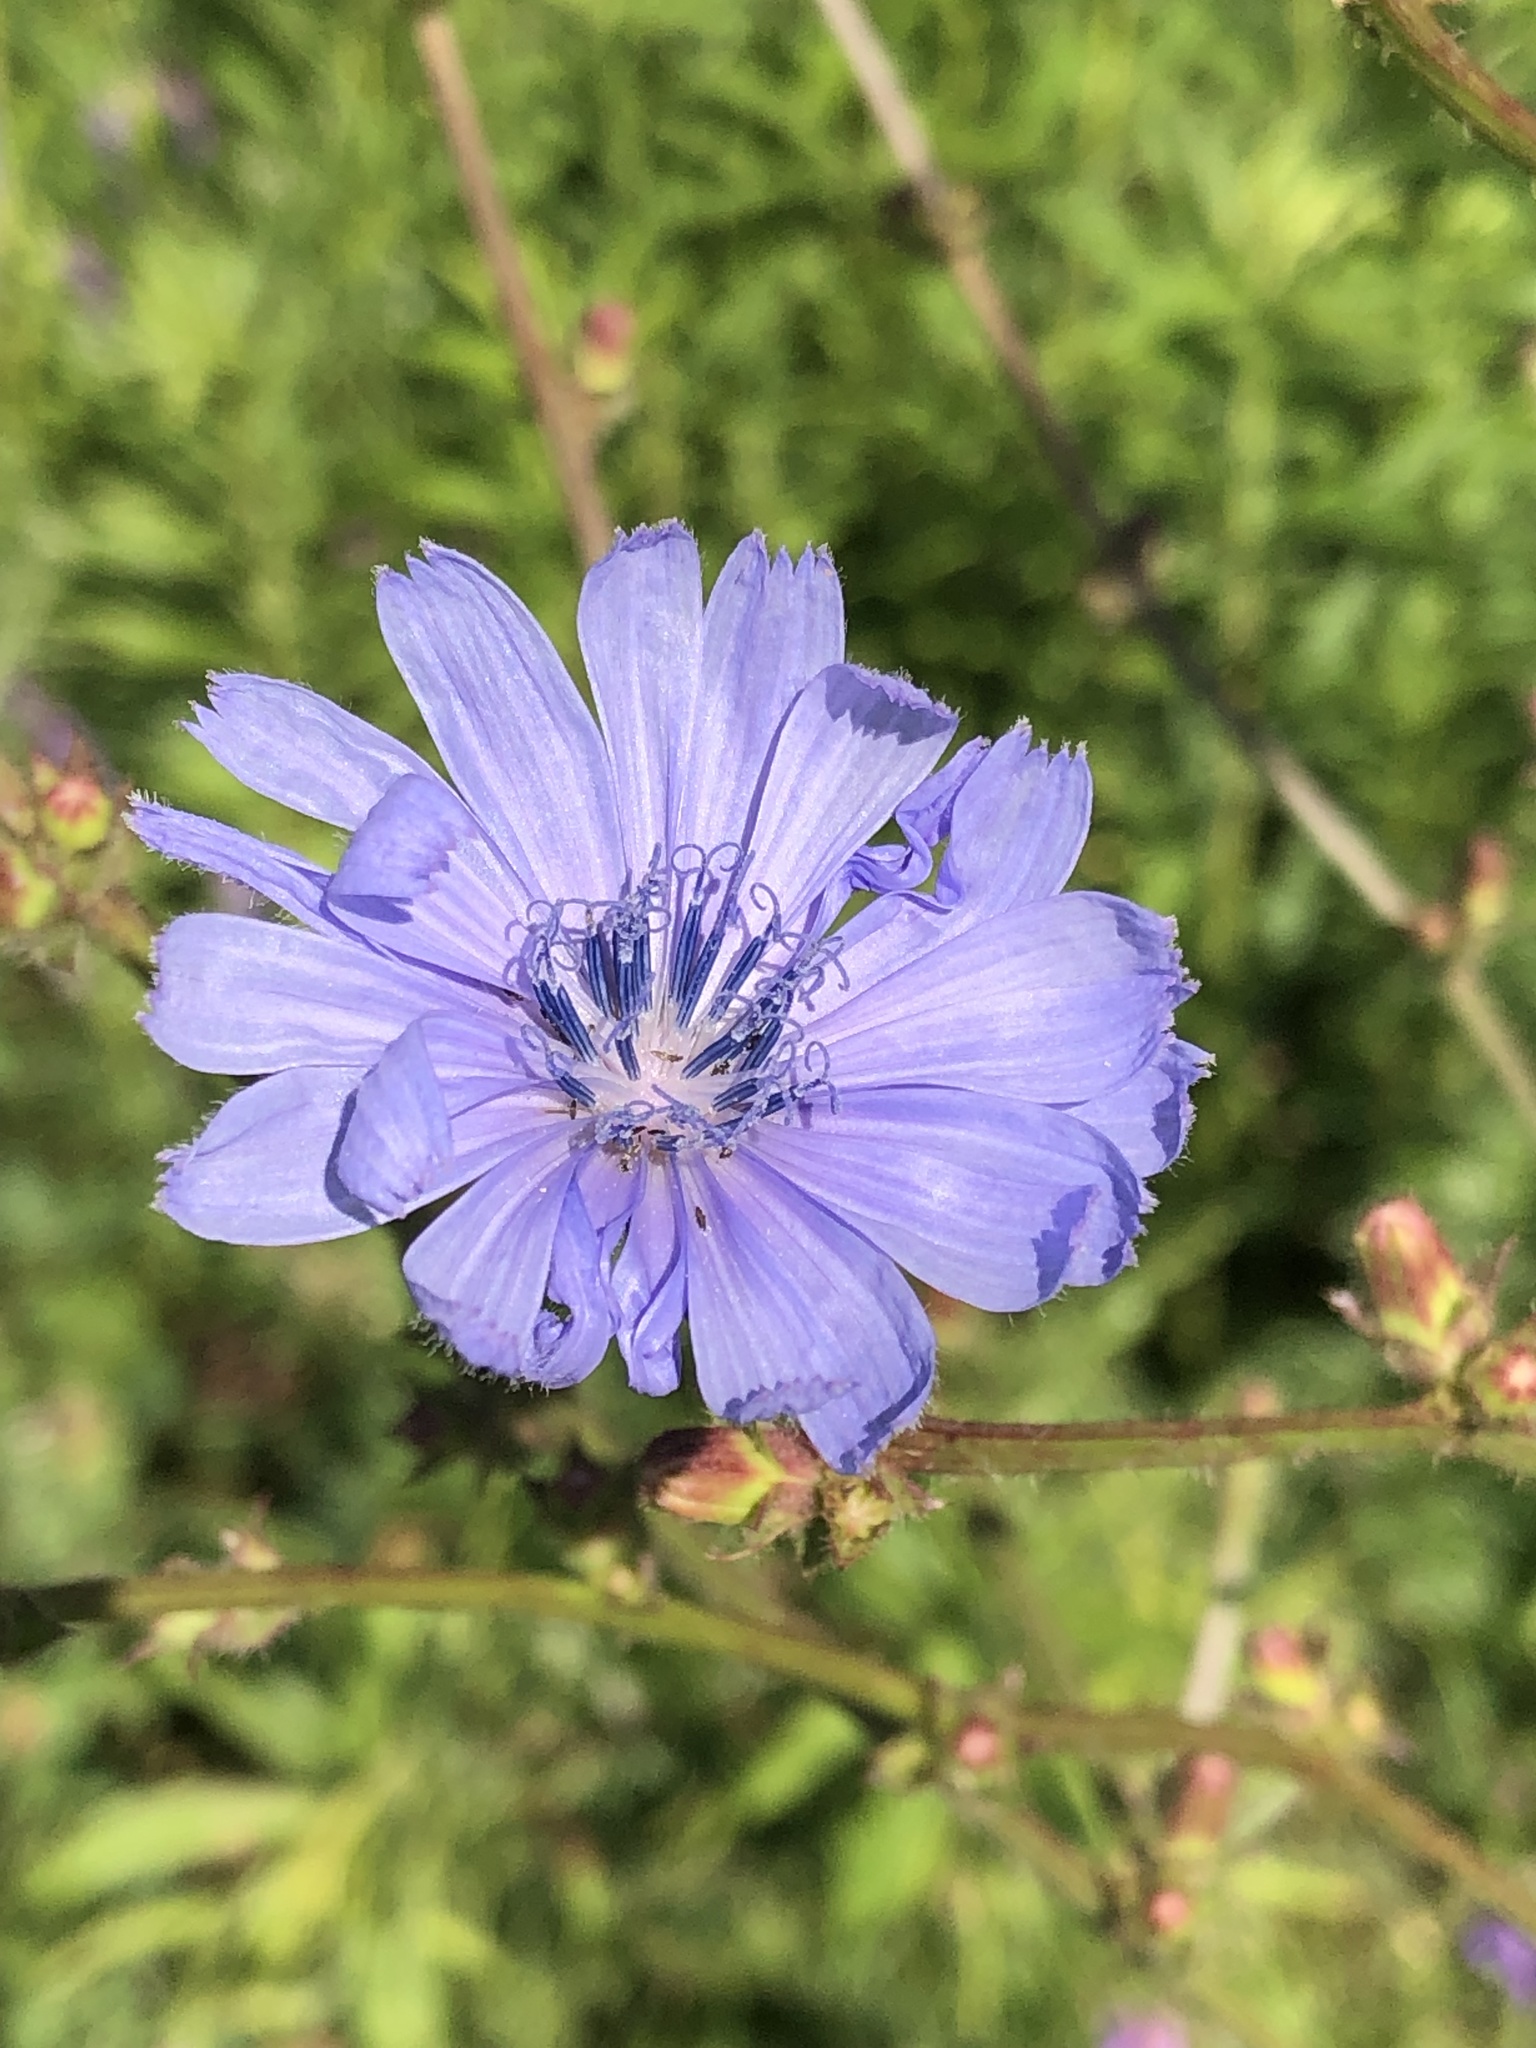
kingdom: Plantae
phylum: Tracheophyta
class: Magnoliopsida
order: Asterales
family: Asteraceae
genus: Cichorium
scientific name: Cichorium intybus
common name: Chicory
